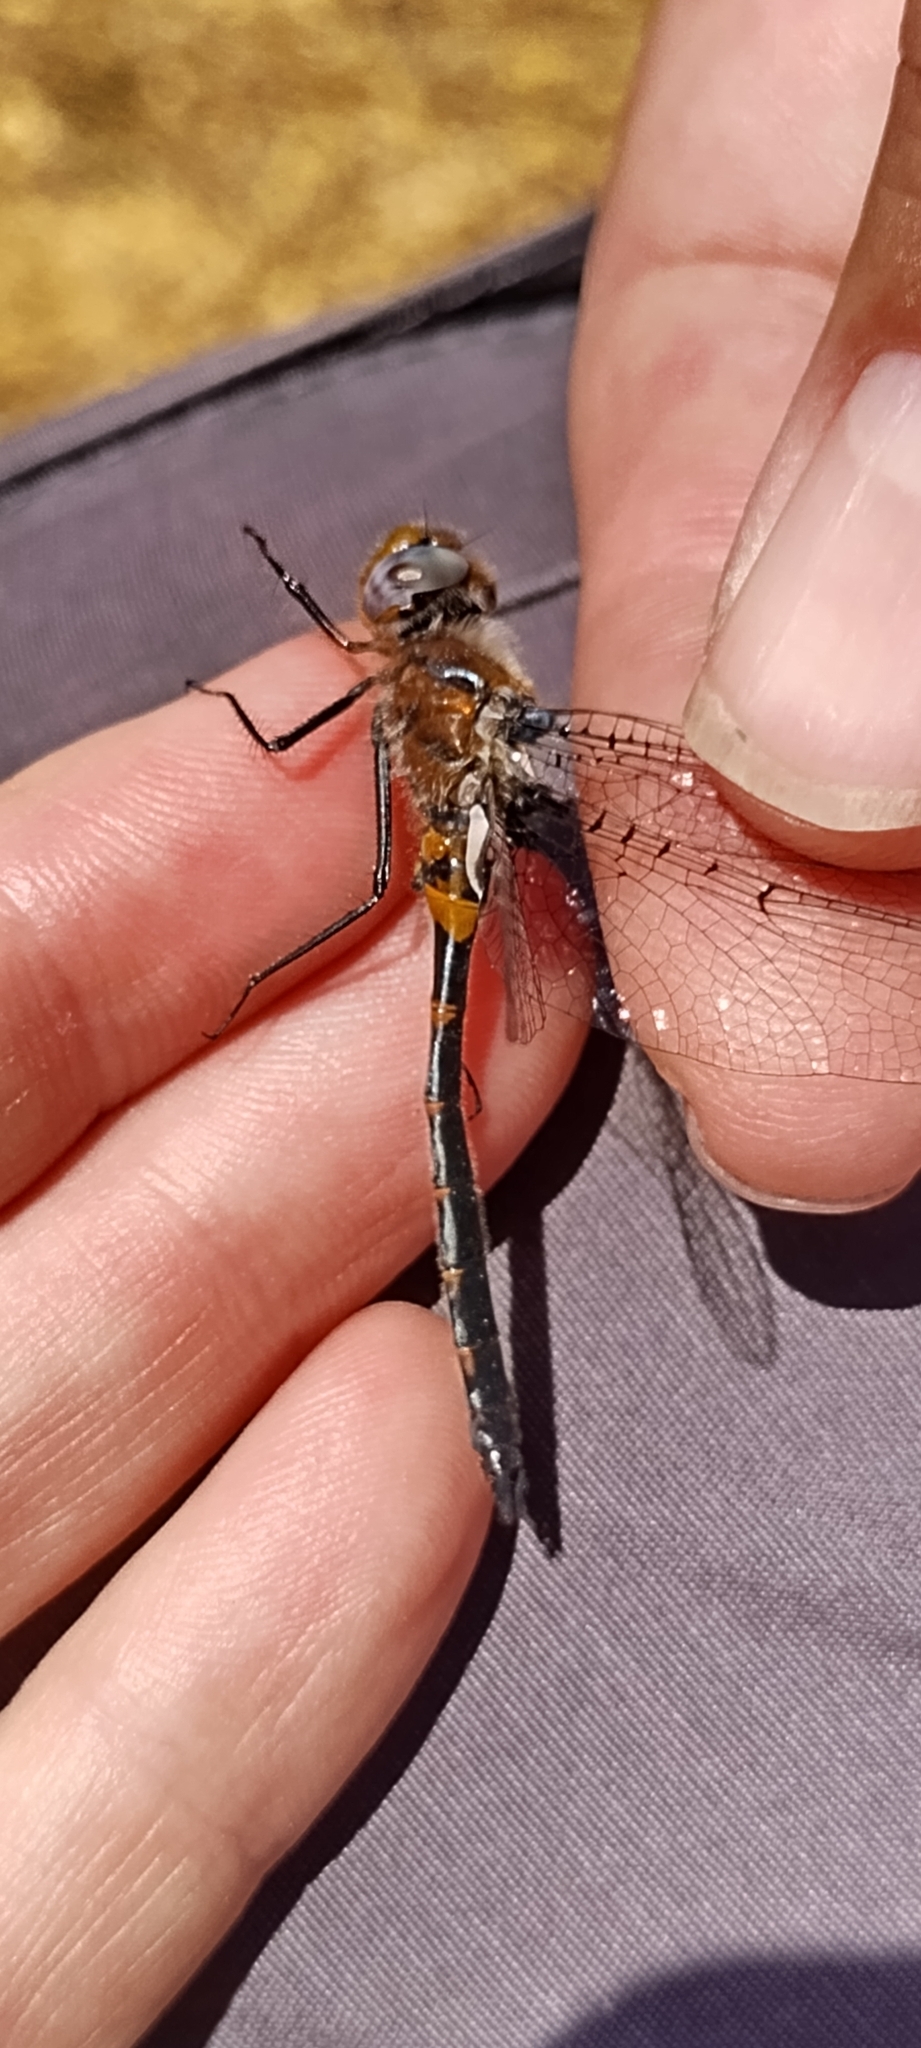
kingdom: Animalia
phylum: Arthropoda
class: Insecta
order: Odonata
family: Corduliidae
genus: Helocordulia
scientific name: Helocordulia selysii
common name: Selys's sundragon
